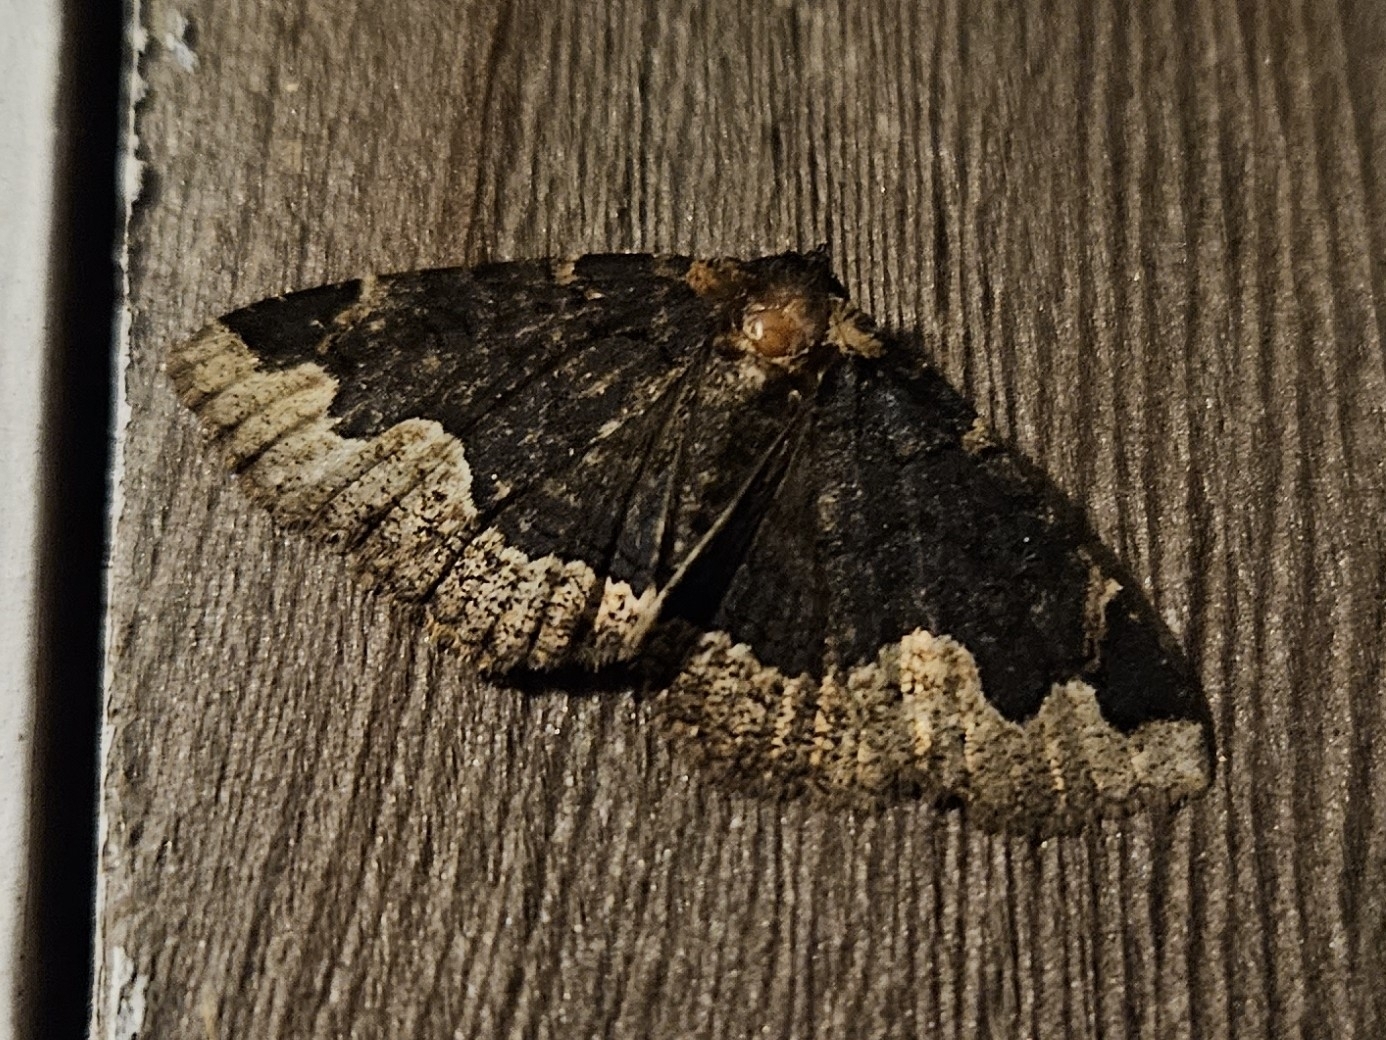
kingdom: Animalia
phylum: Arthropoda
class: Insecta
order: Lepidoptera
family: Erebidae
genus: Zale
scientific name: Zale horrida
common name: Horrid zale moth
